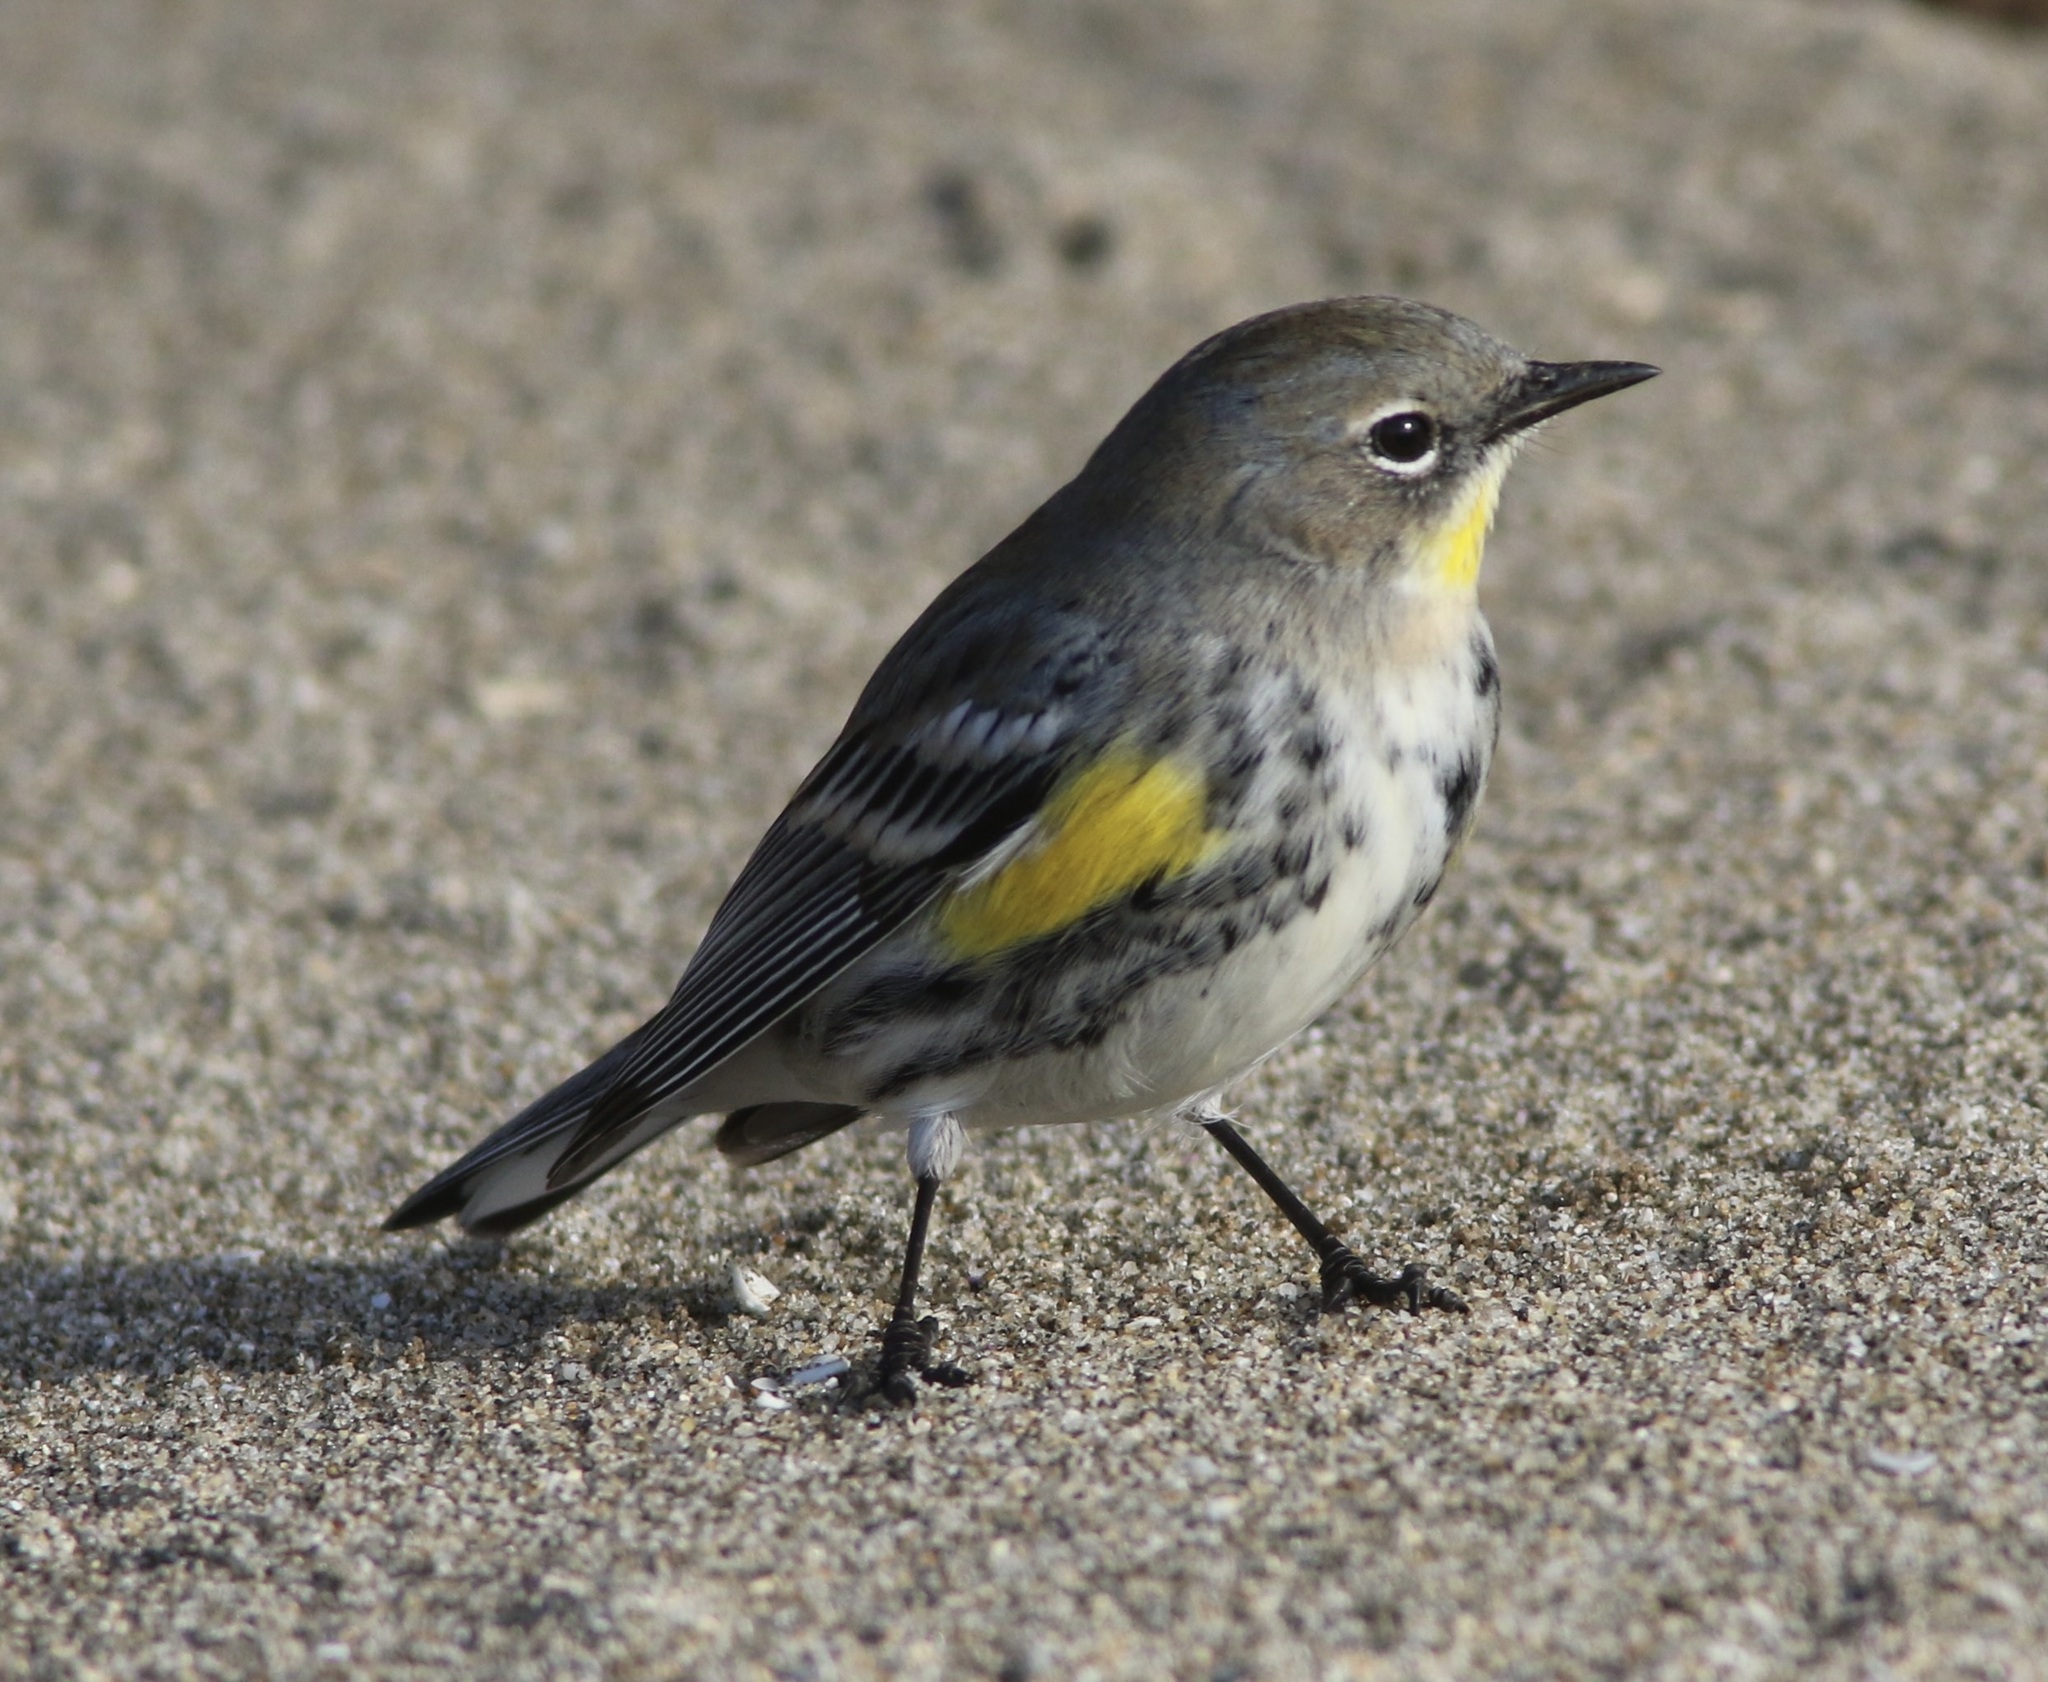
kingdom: Animalia
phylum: Chordata
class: Aves
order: Passeriformes
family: Parulidae
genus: Setophaga
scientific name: Setophaga coronata
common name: Myrtle warbler
